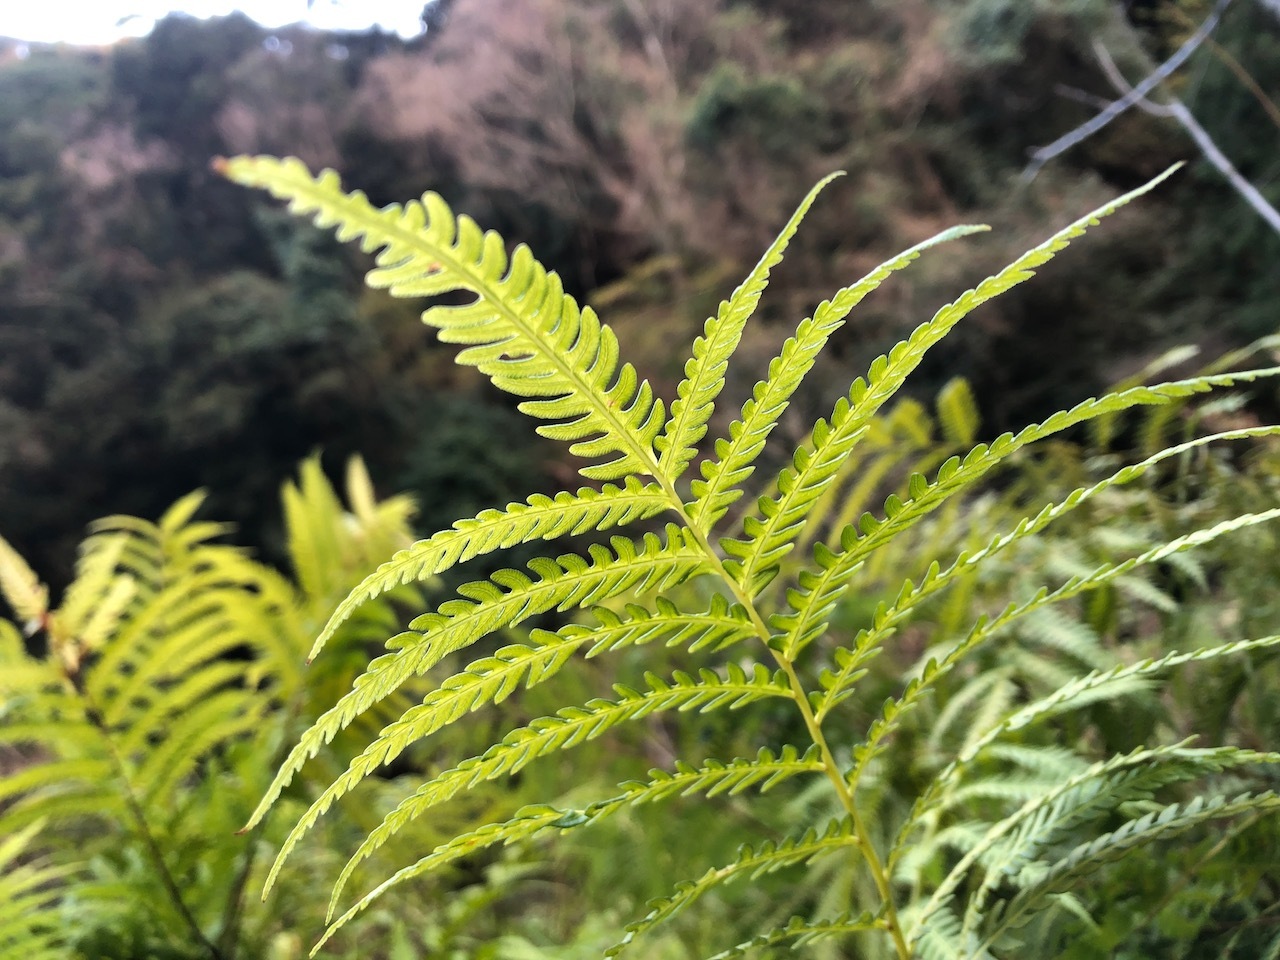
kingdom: Plantae
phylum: Tracheophyta
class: Polypodiopsida
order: Polypodiales
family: Pteridaceae
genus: Pteris
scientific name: Pteris wallichiana
